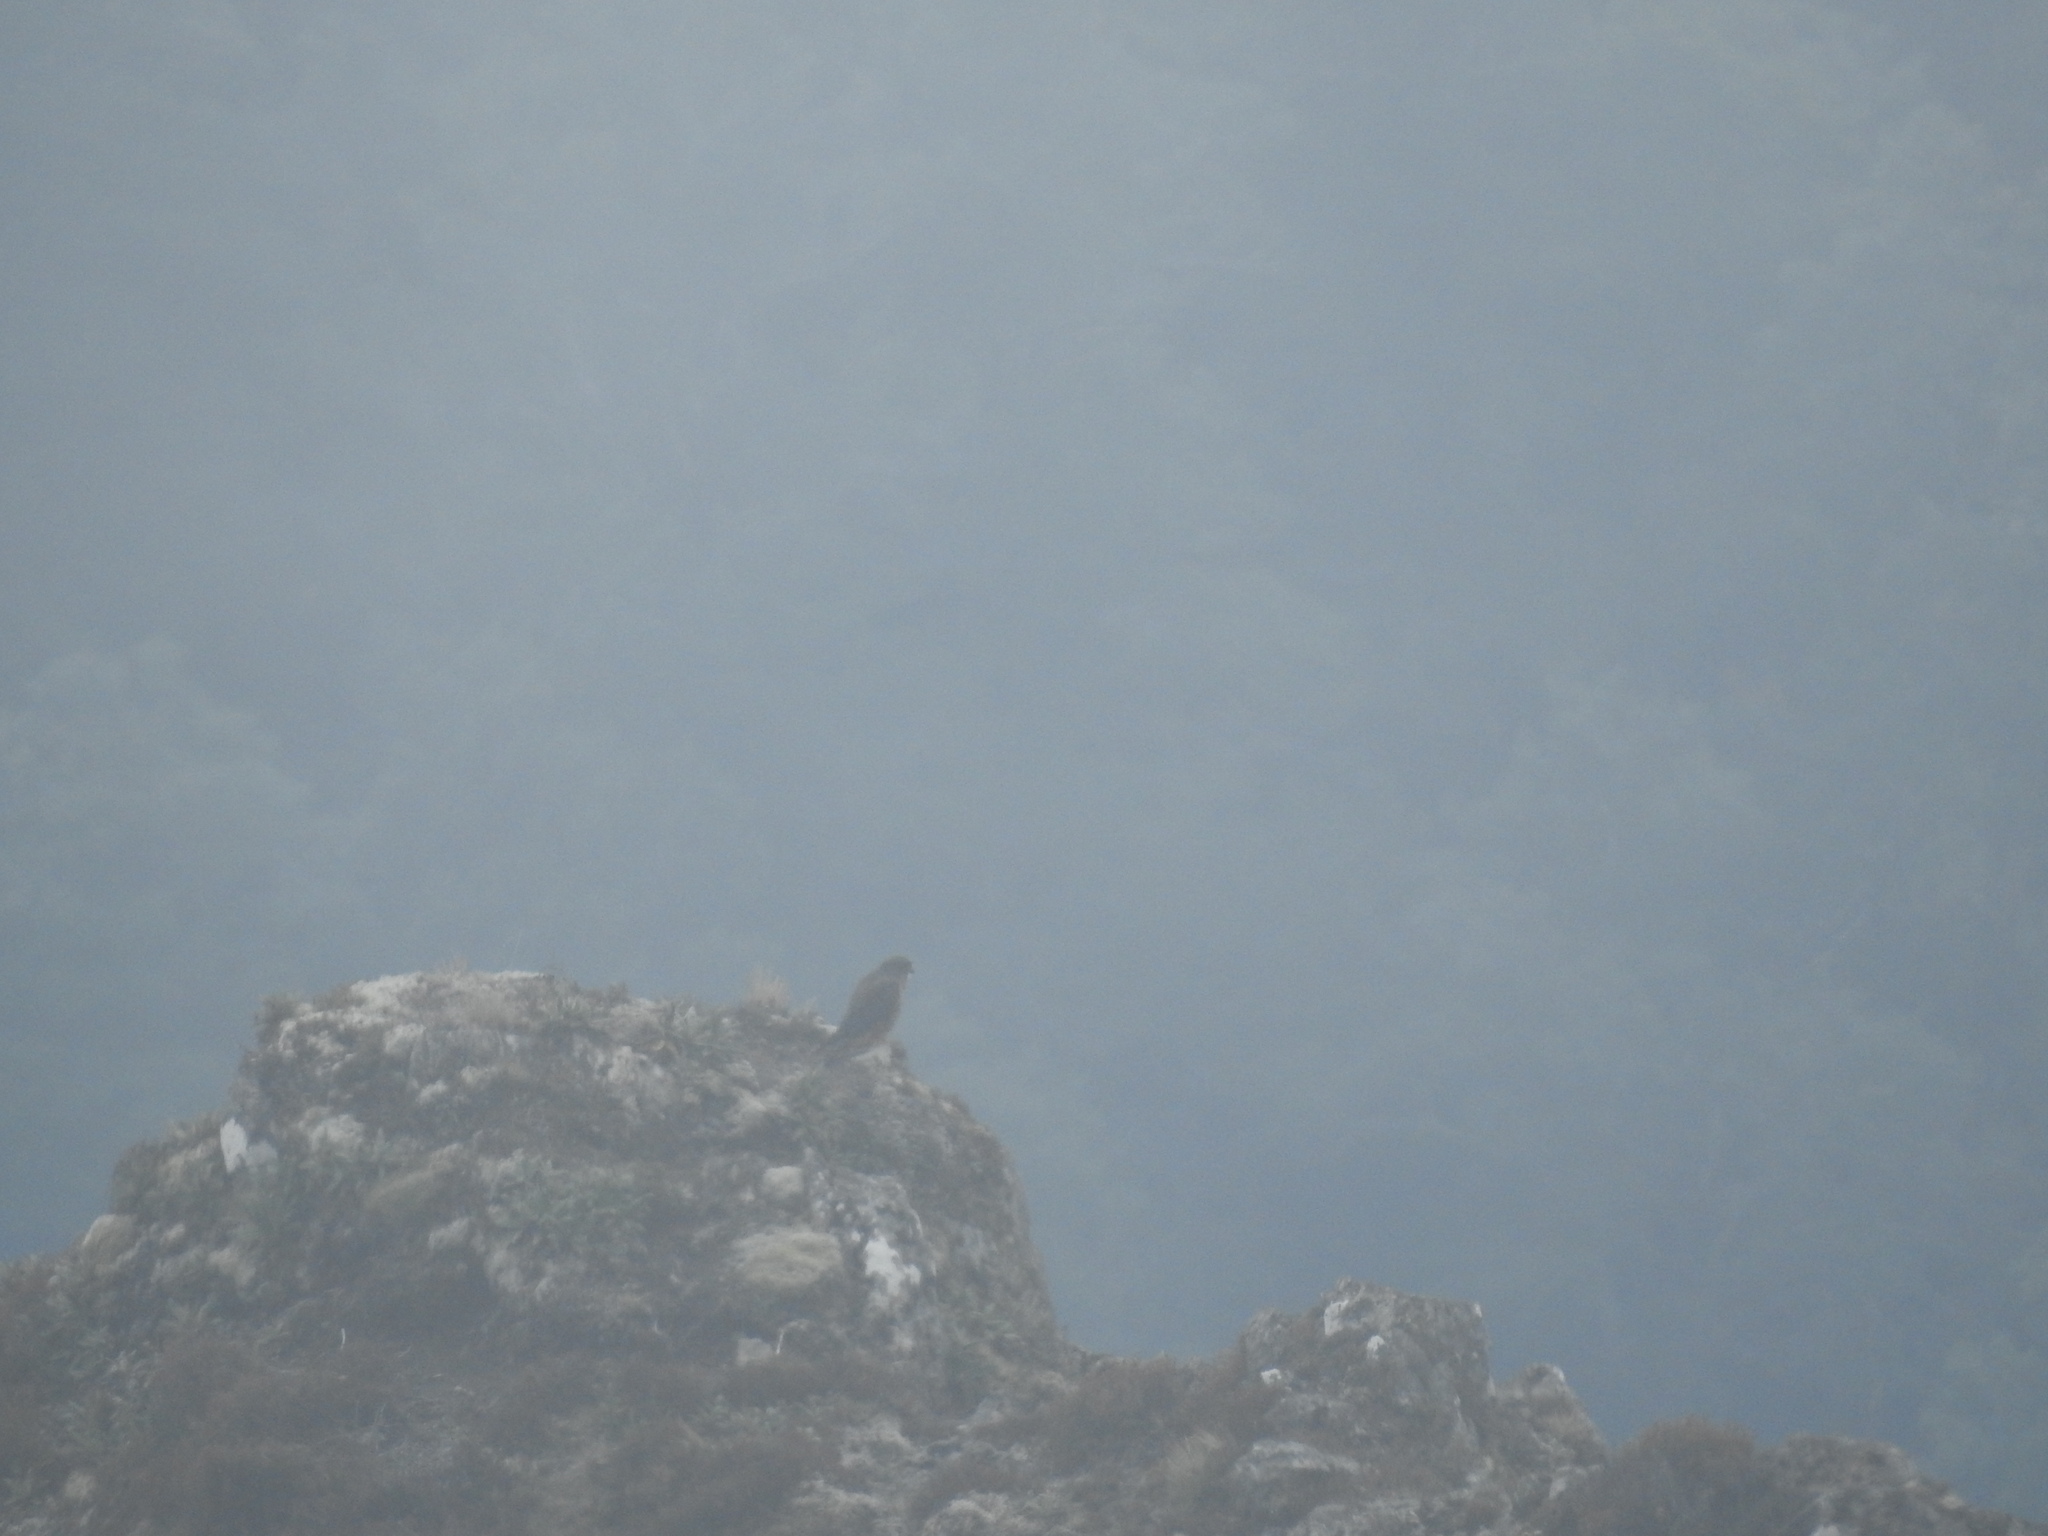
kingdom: Animalia
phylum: Chordata
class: Aves
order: Falconiformes
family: Falconidae
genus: Falco
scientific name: Falco novaeseelandiae
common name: New zealand falcon
